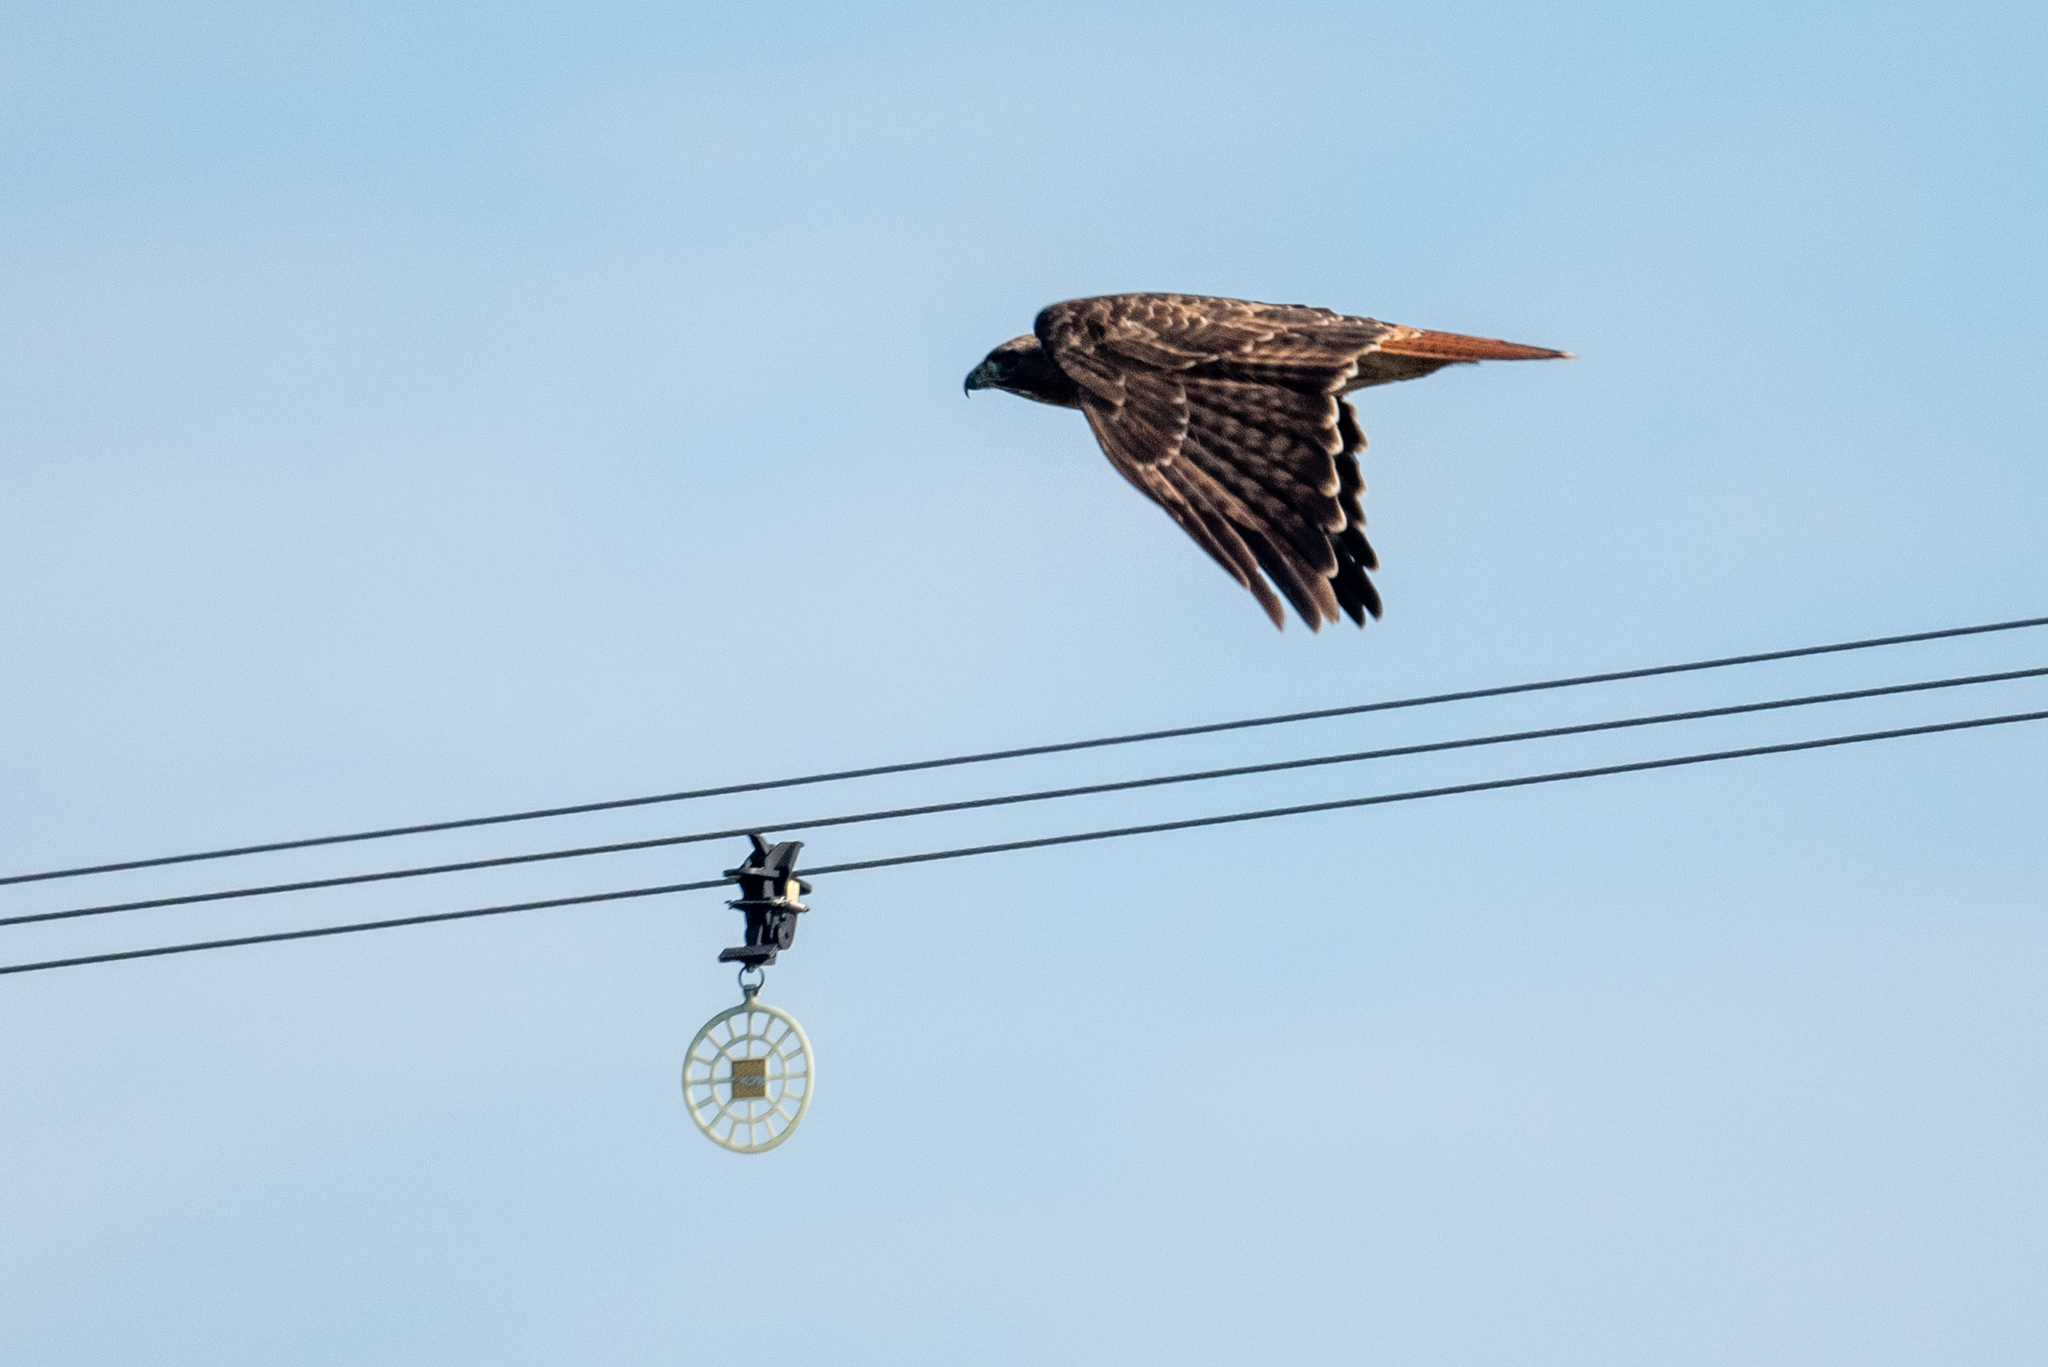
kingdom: Animalia
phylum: Chordata
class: Aves
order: Accipitriformes
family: Accipitridae
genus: Buteo
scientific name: Buteo jamaicensis
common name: Red-tailed hawk
